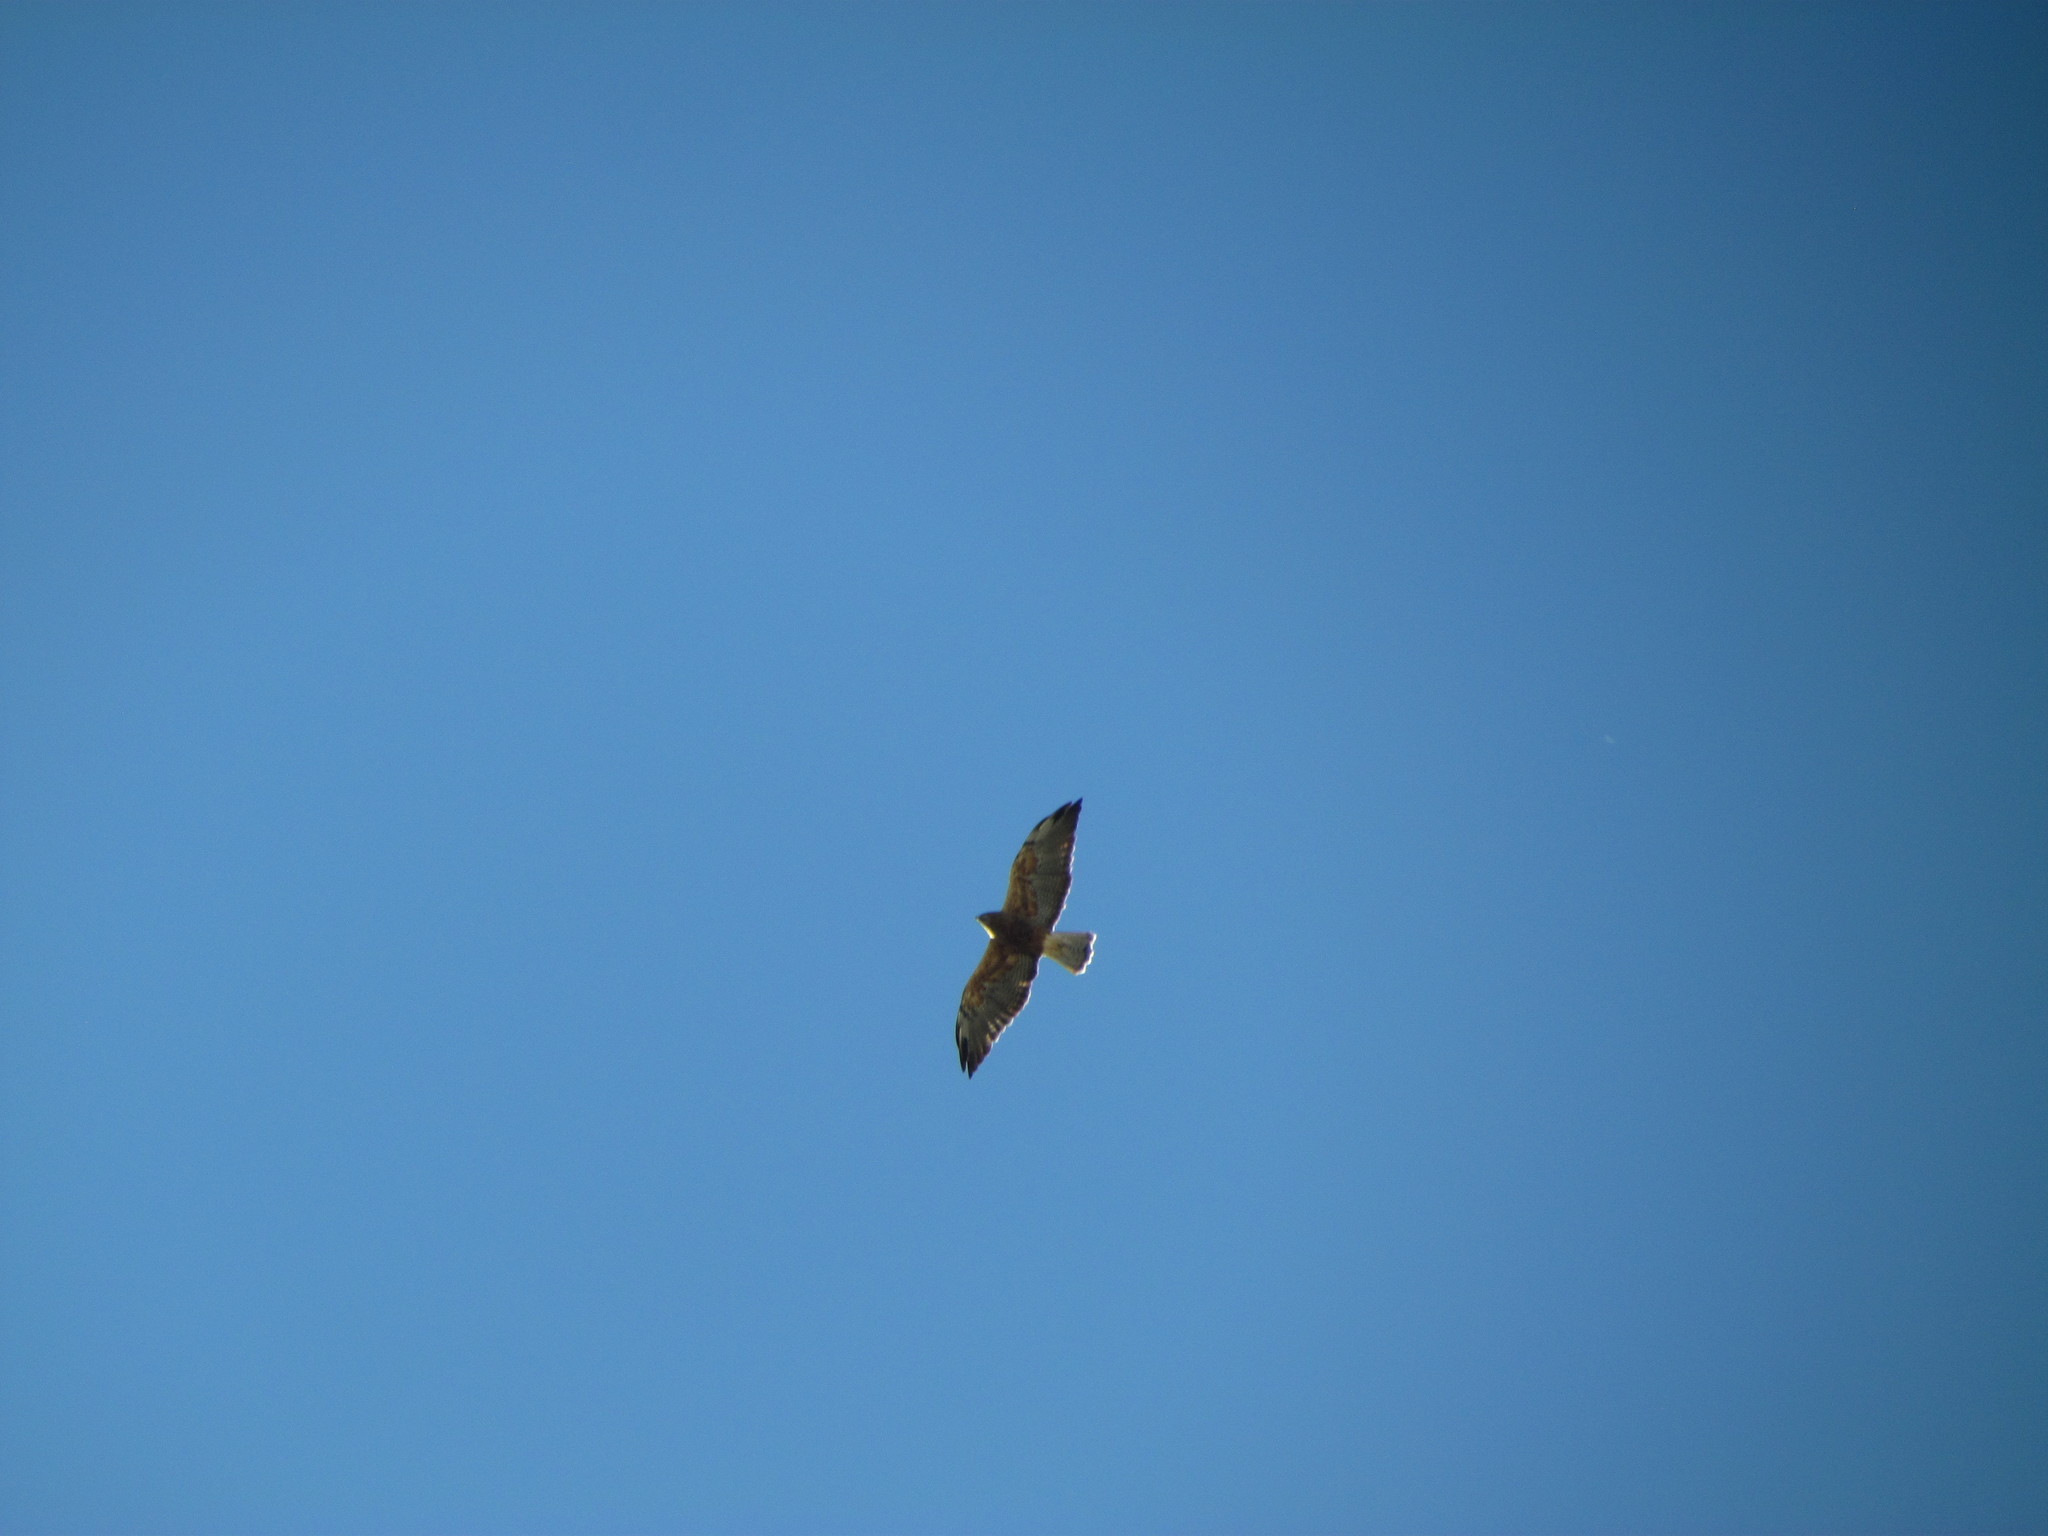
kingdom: Animalia
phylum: Chordata
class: Aves
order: Accipitriformes
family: Accipitridae
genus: Buteo
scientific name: Buteo swainsoni
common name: Swainson's hawk
